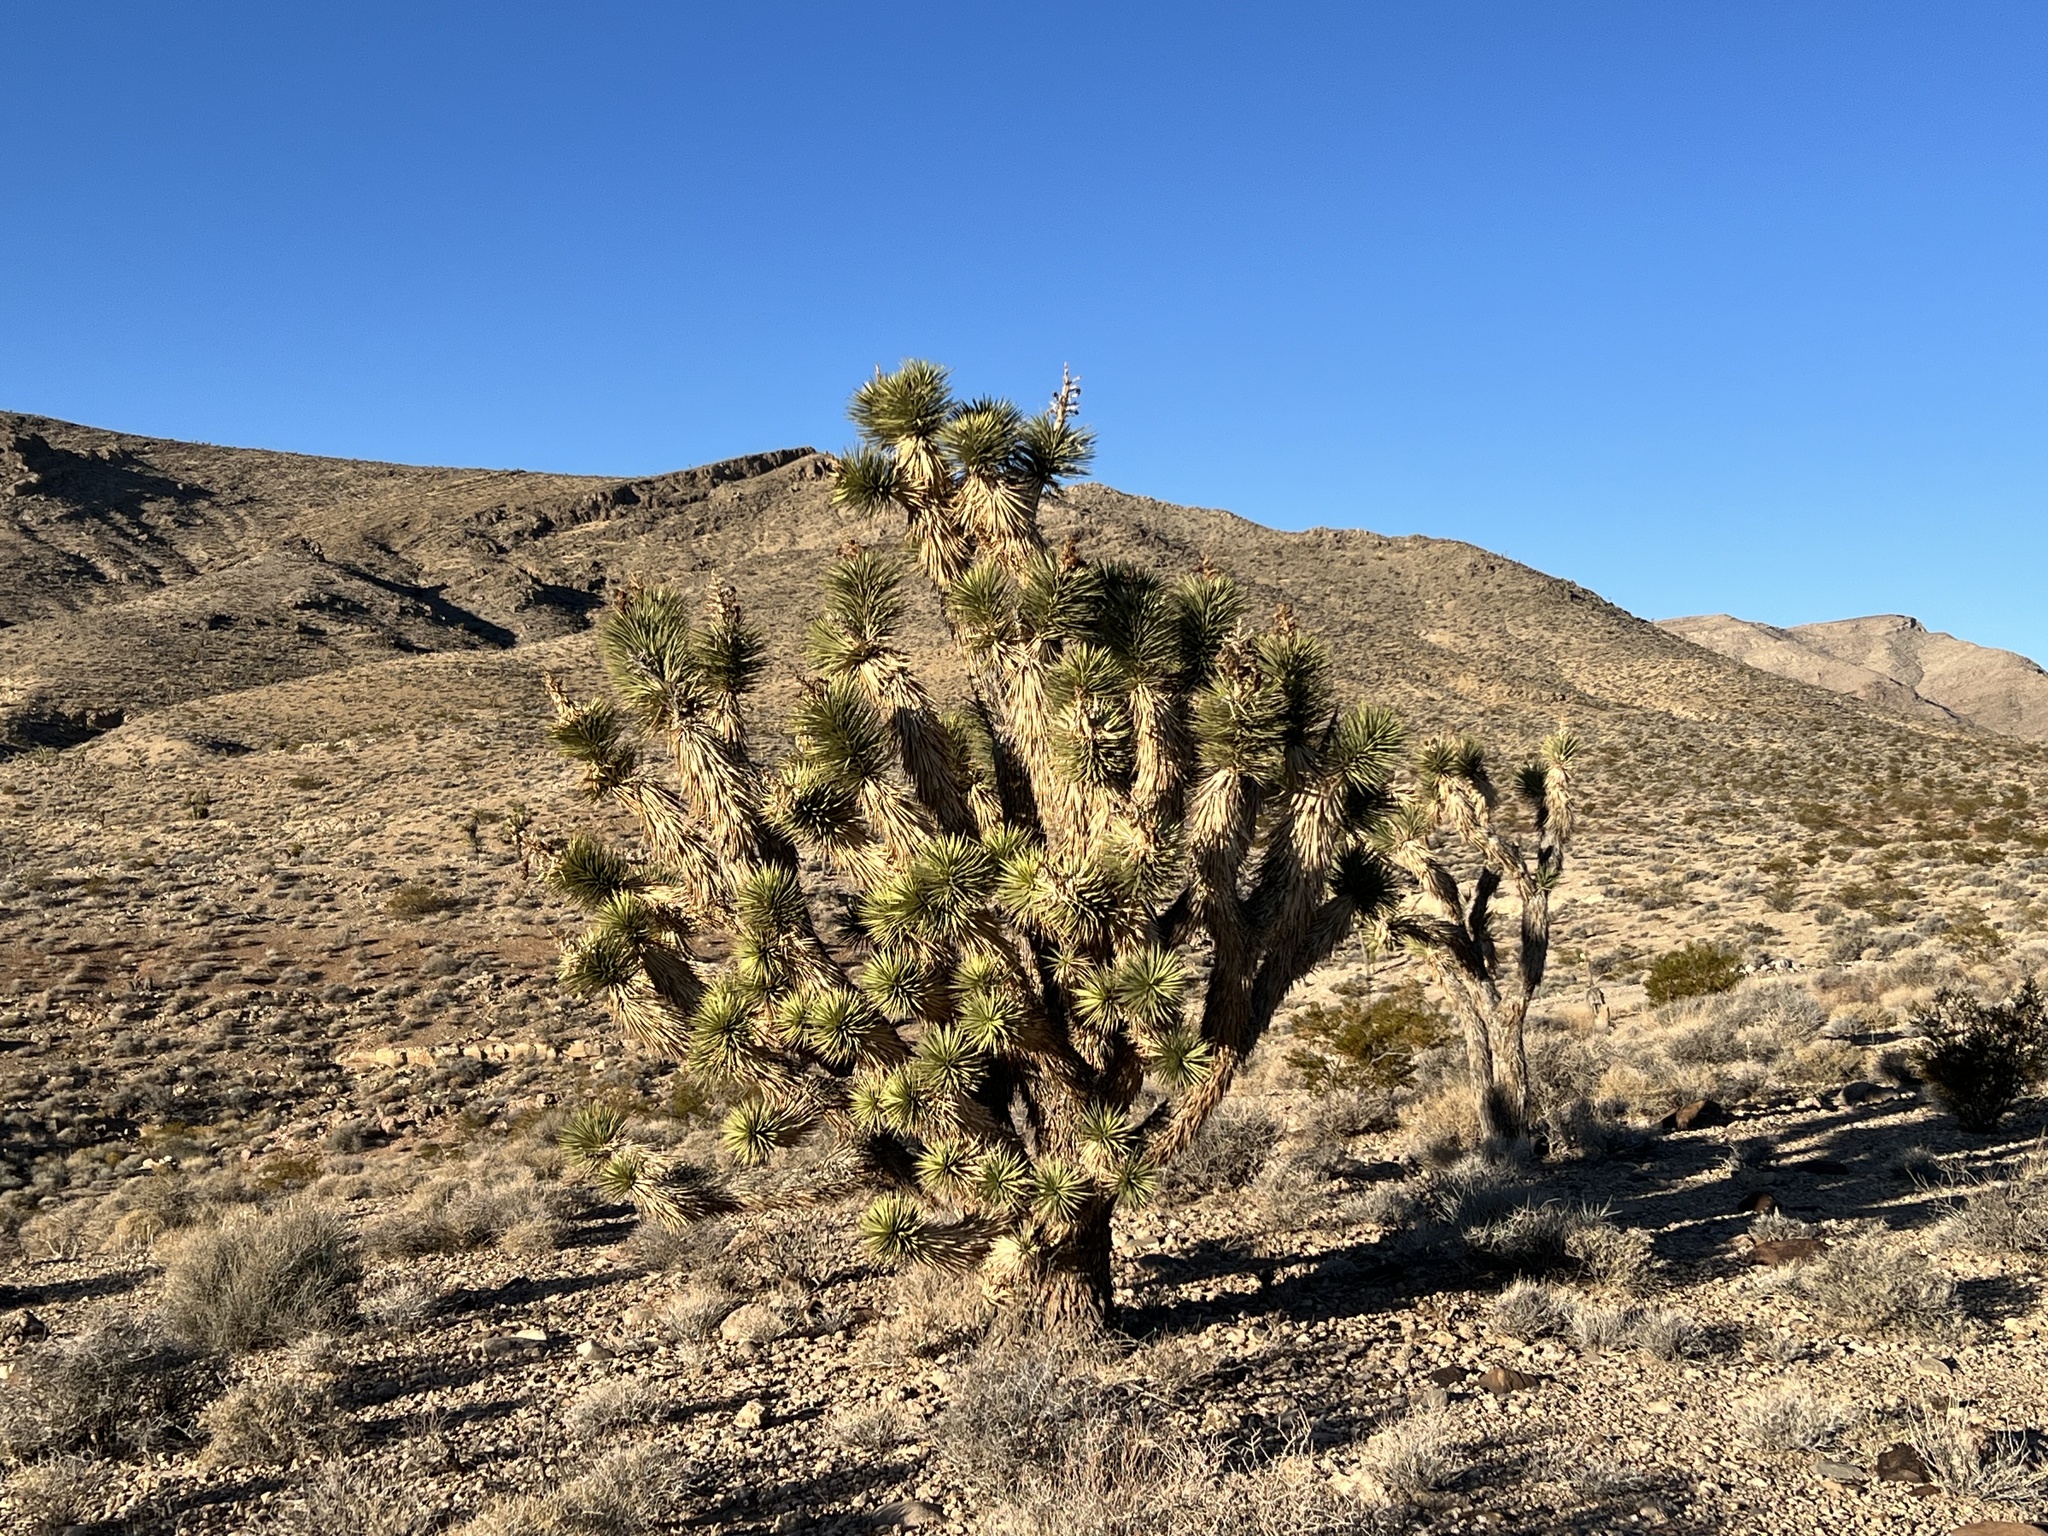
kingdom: Plantae
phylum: Tracheophyta
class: Liliopsida
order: Asparagales
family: Asparagaceae
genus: Yucca
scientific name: Yucca brevifolia
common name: Joshua tree
